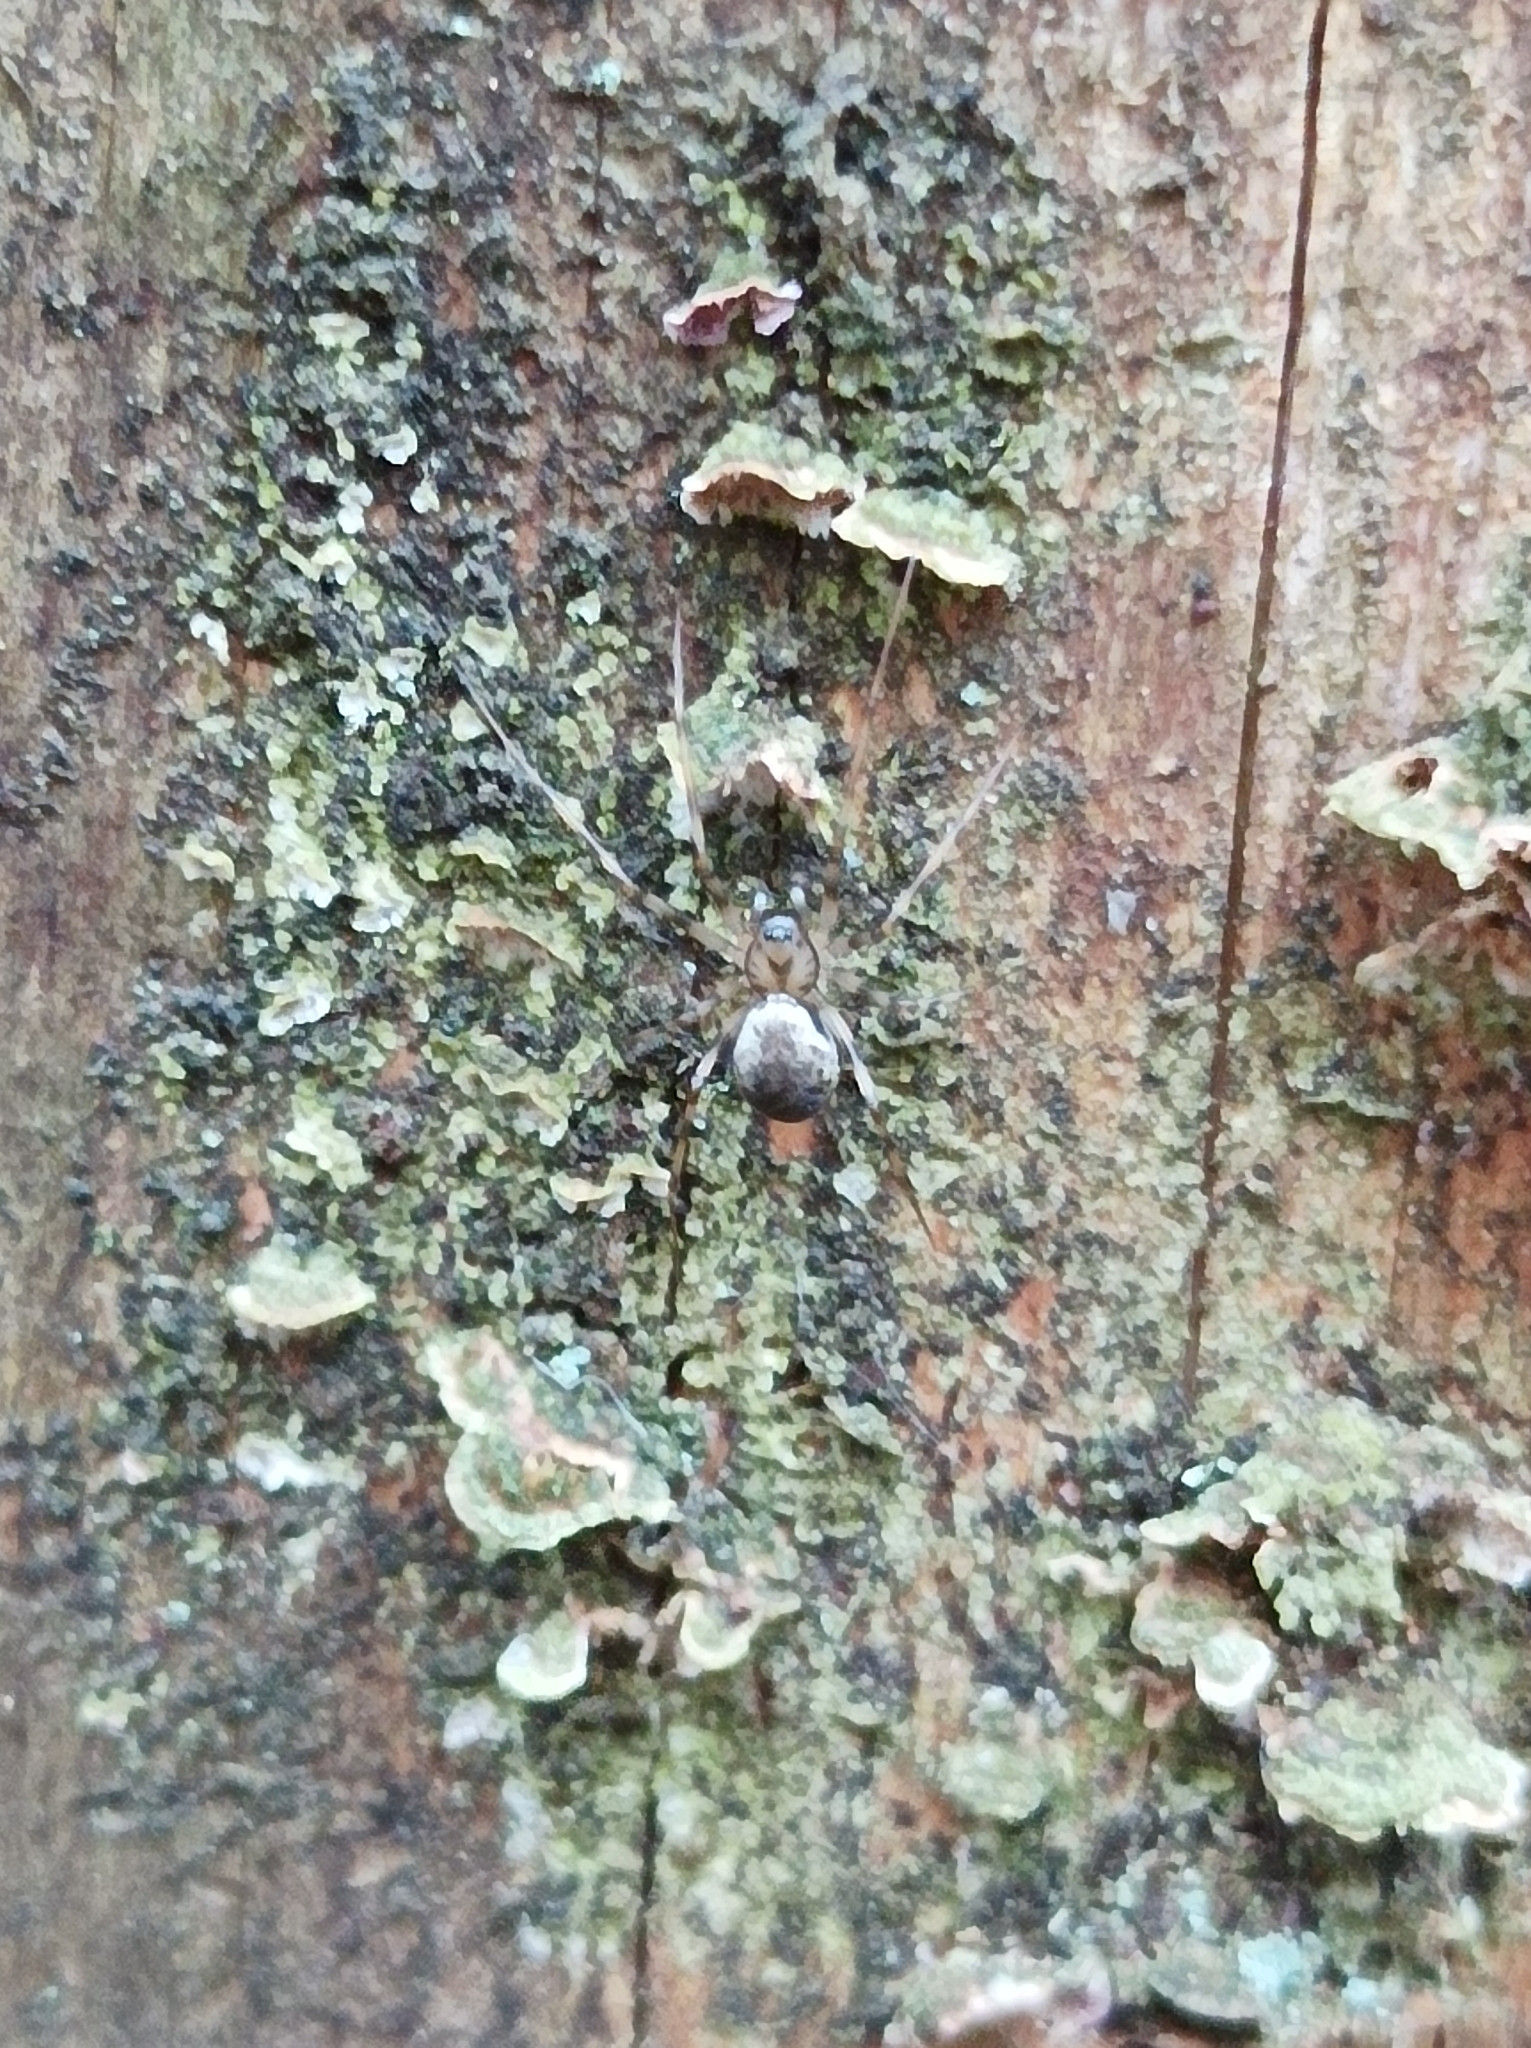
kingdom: Animalia
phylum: Arthropoda
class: Arachnida
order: Araneae
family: Linyphiidae
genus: Drapetisca
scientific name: Drapetisca socialis
